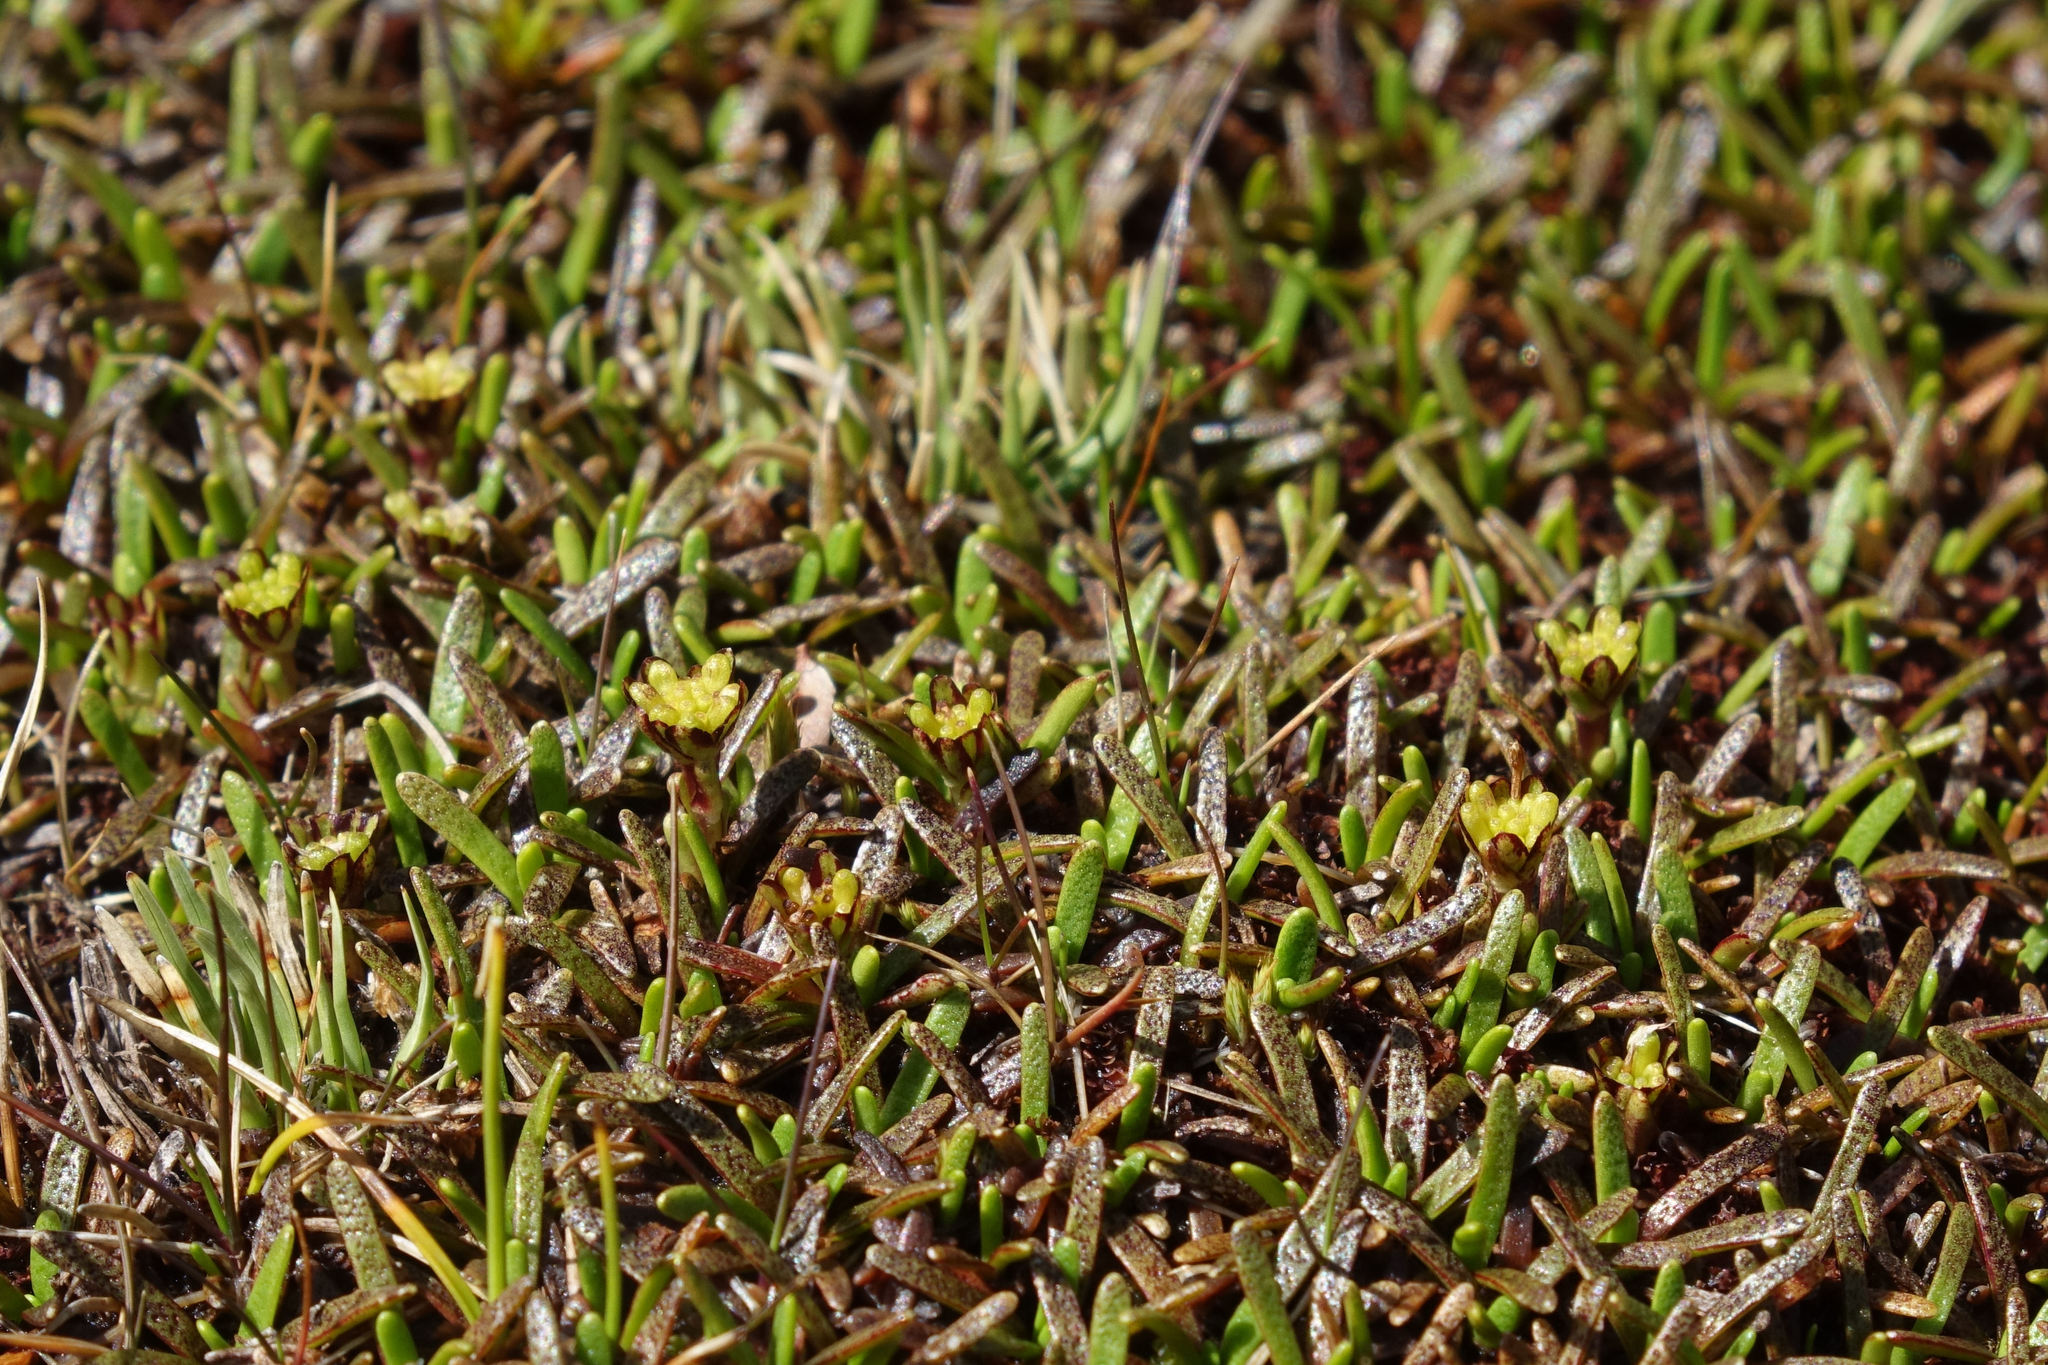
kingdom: Plantae
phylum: Tracheophyta
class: Magnoliopsida
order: Asterales
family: Asteraceae
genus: Abrotanella
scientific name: Abrotanella caespitosa
